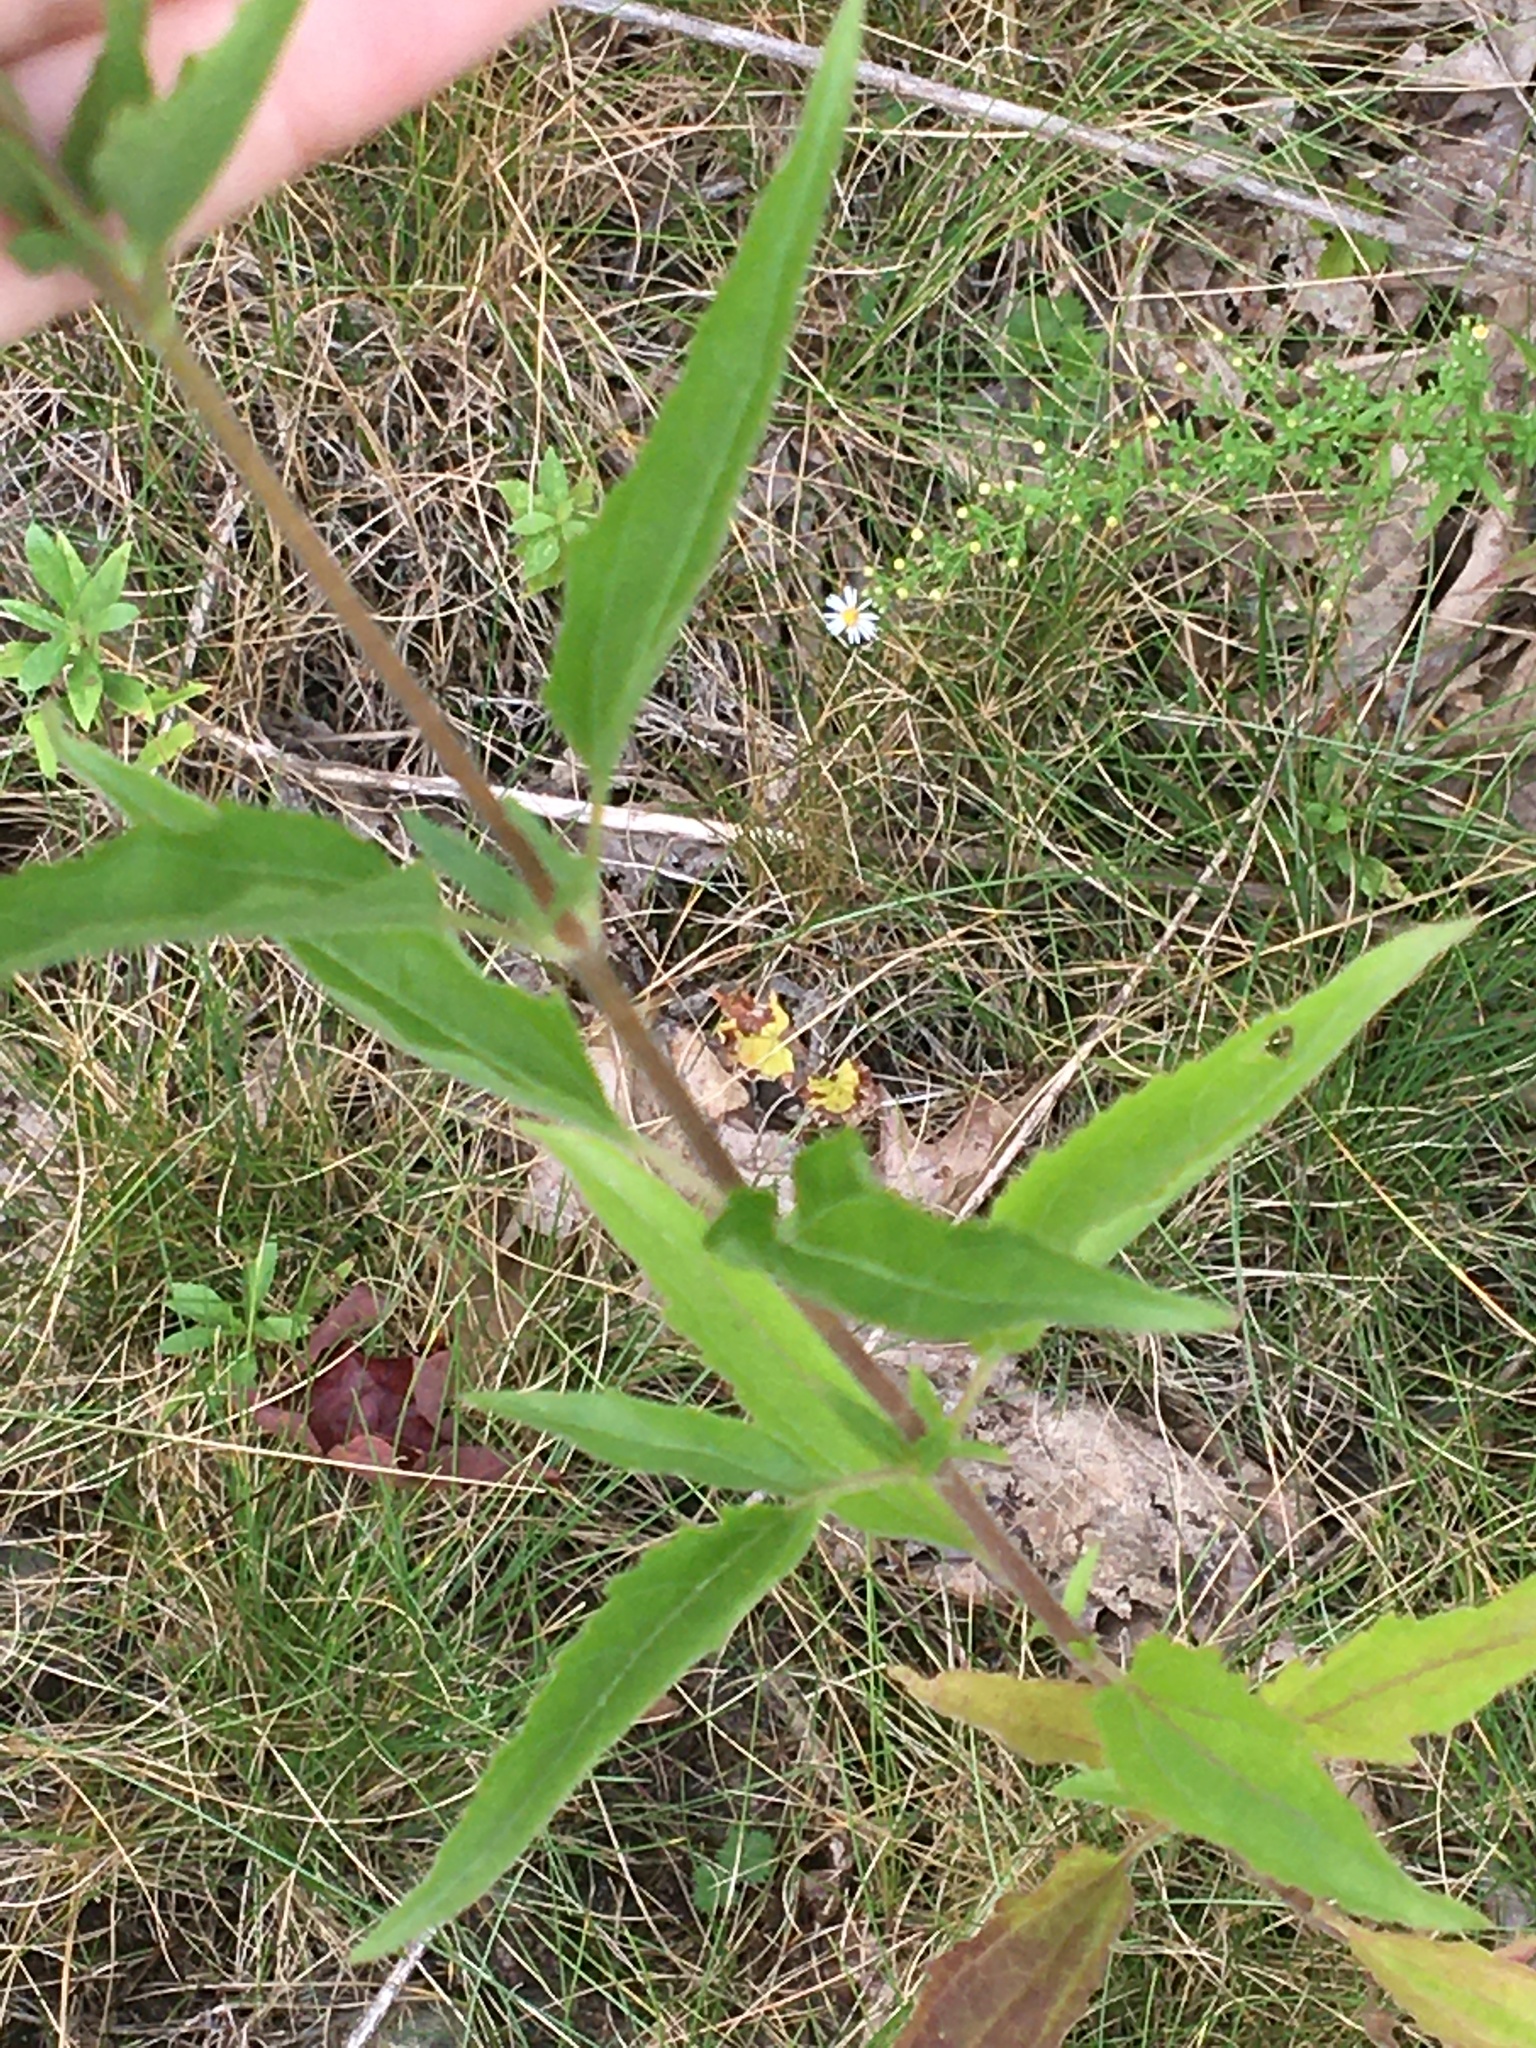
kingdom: Plantae
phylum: Tracheophyta
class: Magnoliopsida
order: Asterales
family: Asteraceae
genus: Eupatorium
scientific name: Eupatorium serotinum
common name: Late boneset
